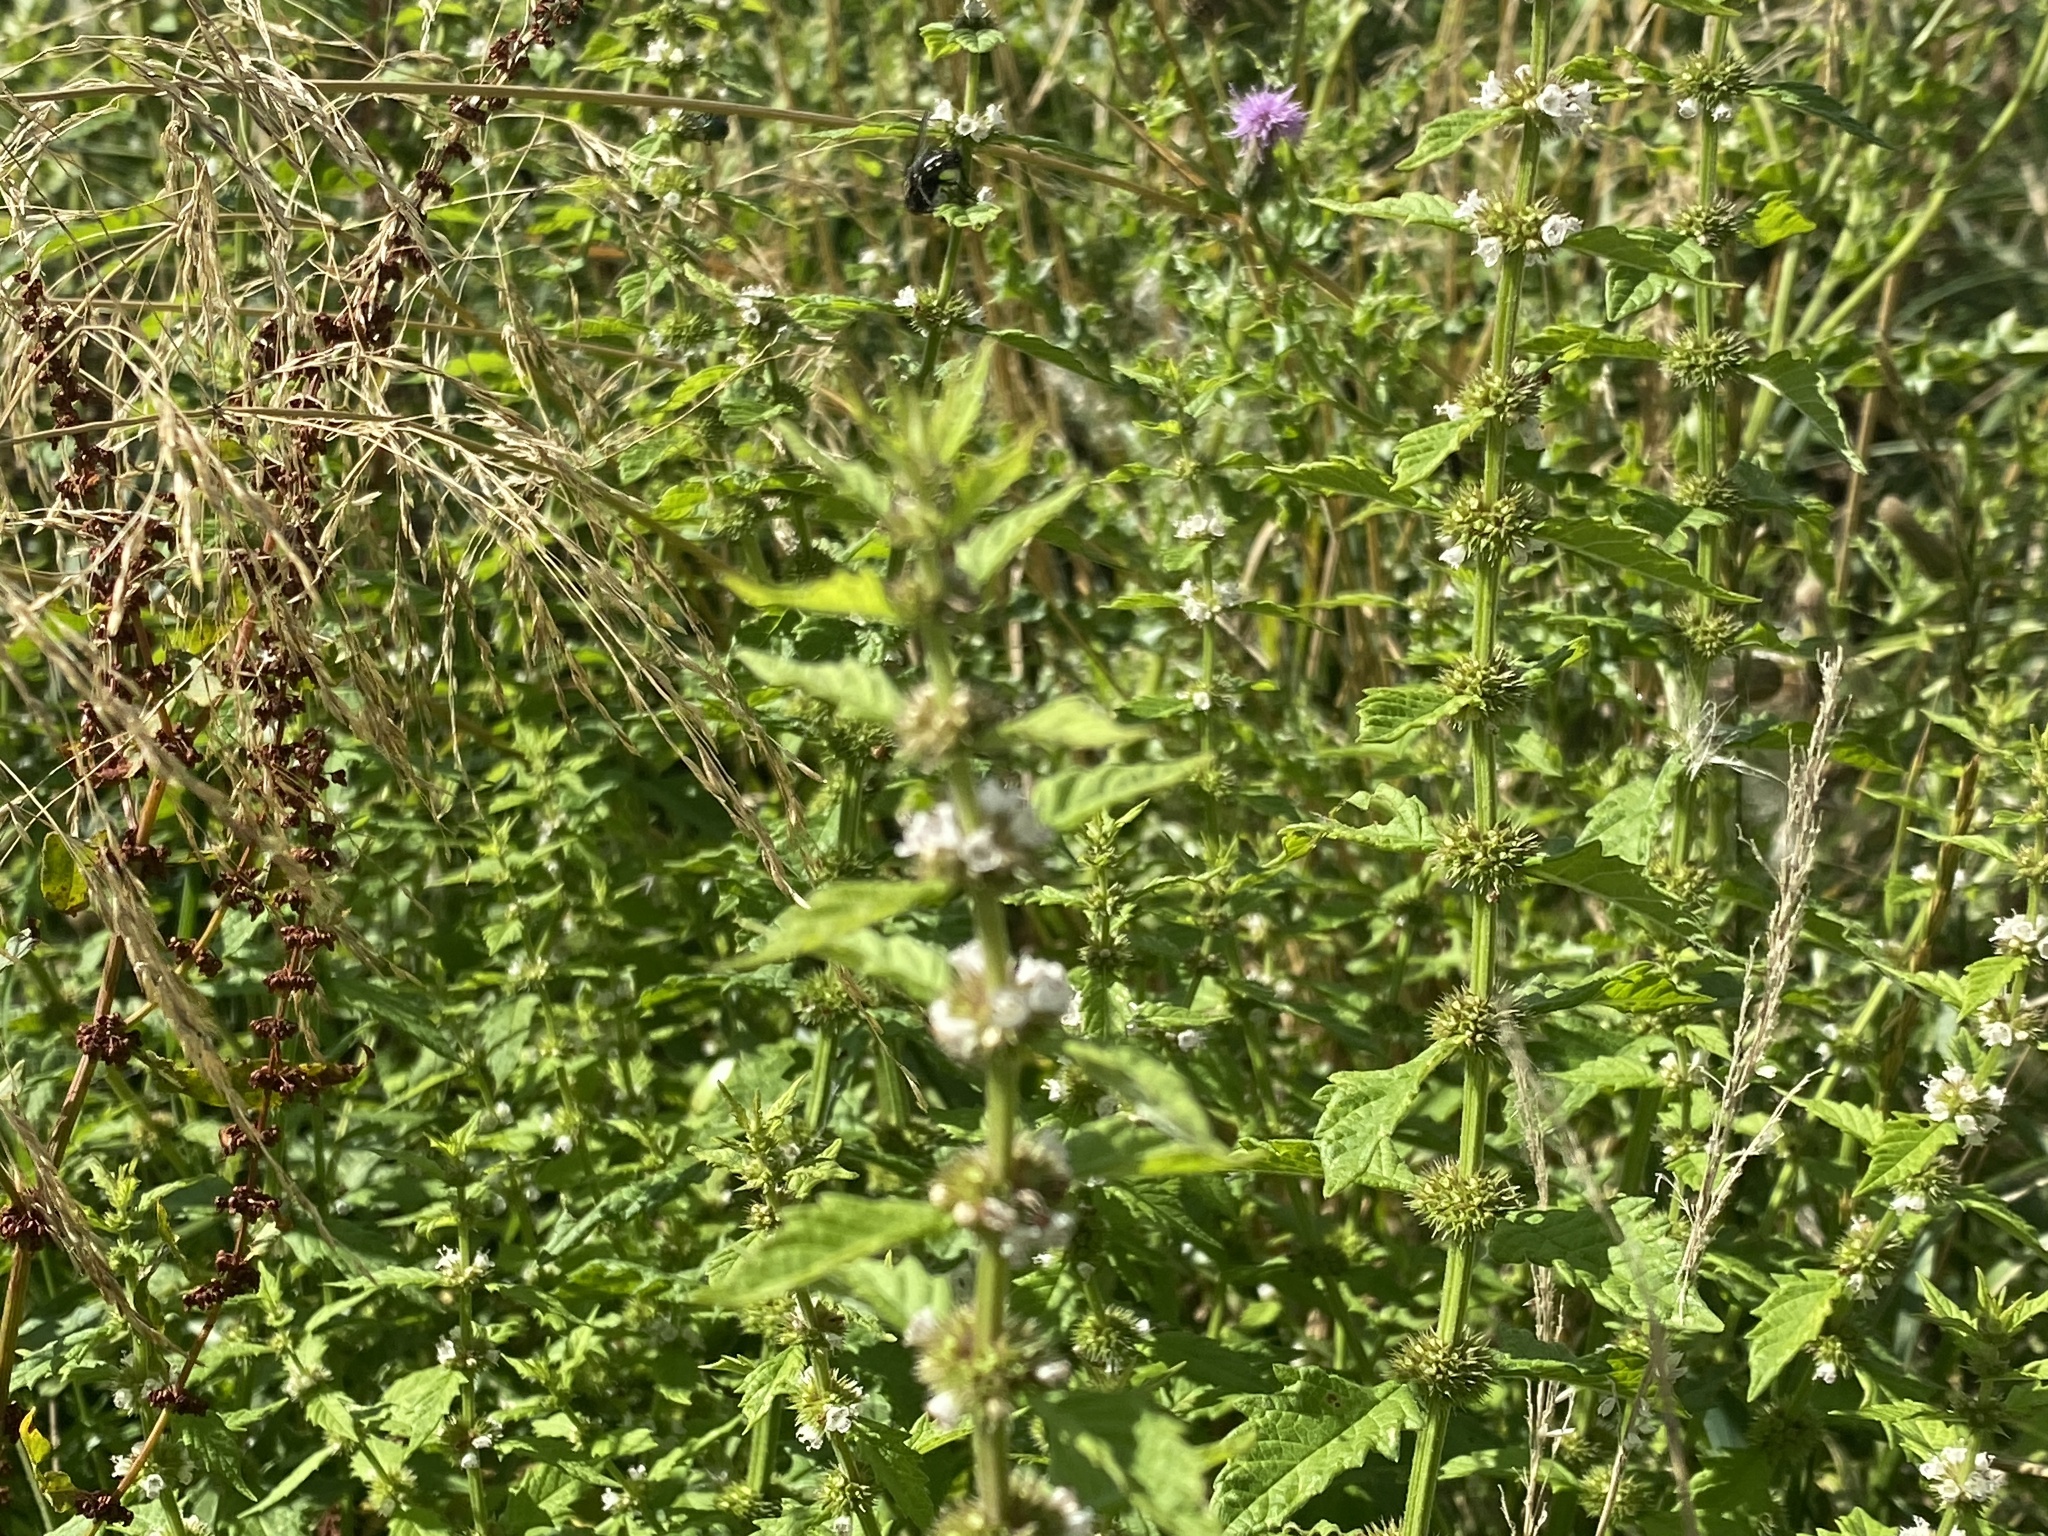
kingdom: Plantae
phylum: Tracheophyta
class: Magnoliopsida
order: Lamiales
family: Lamiaceae
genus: Lycopus
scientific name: Lycopus europaeus
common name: European bugleweed
